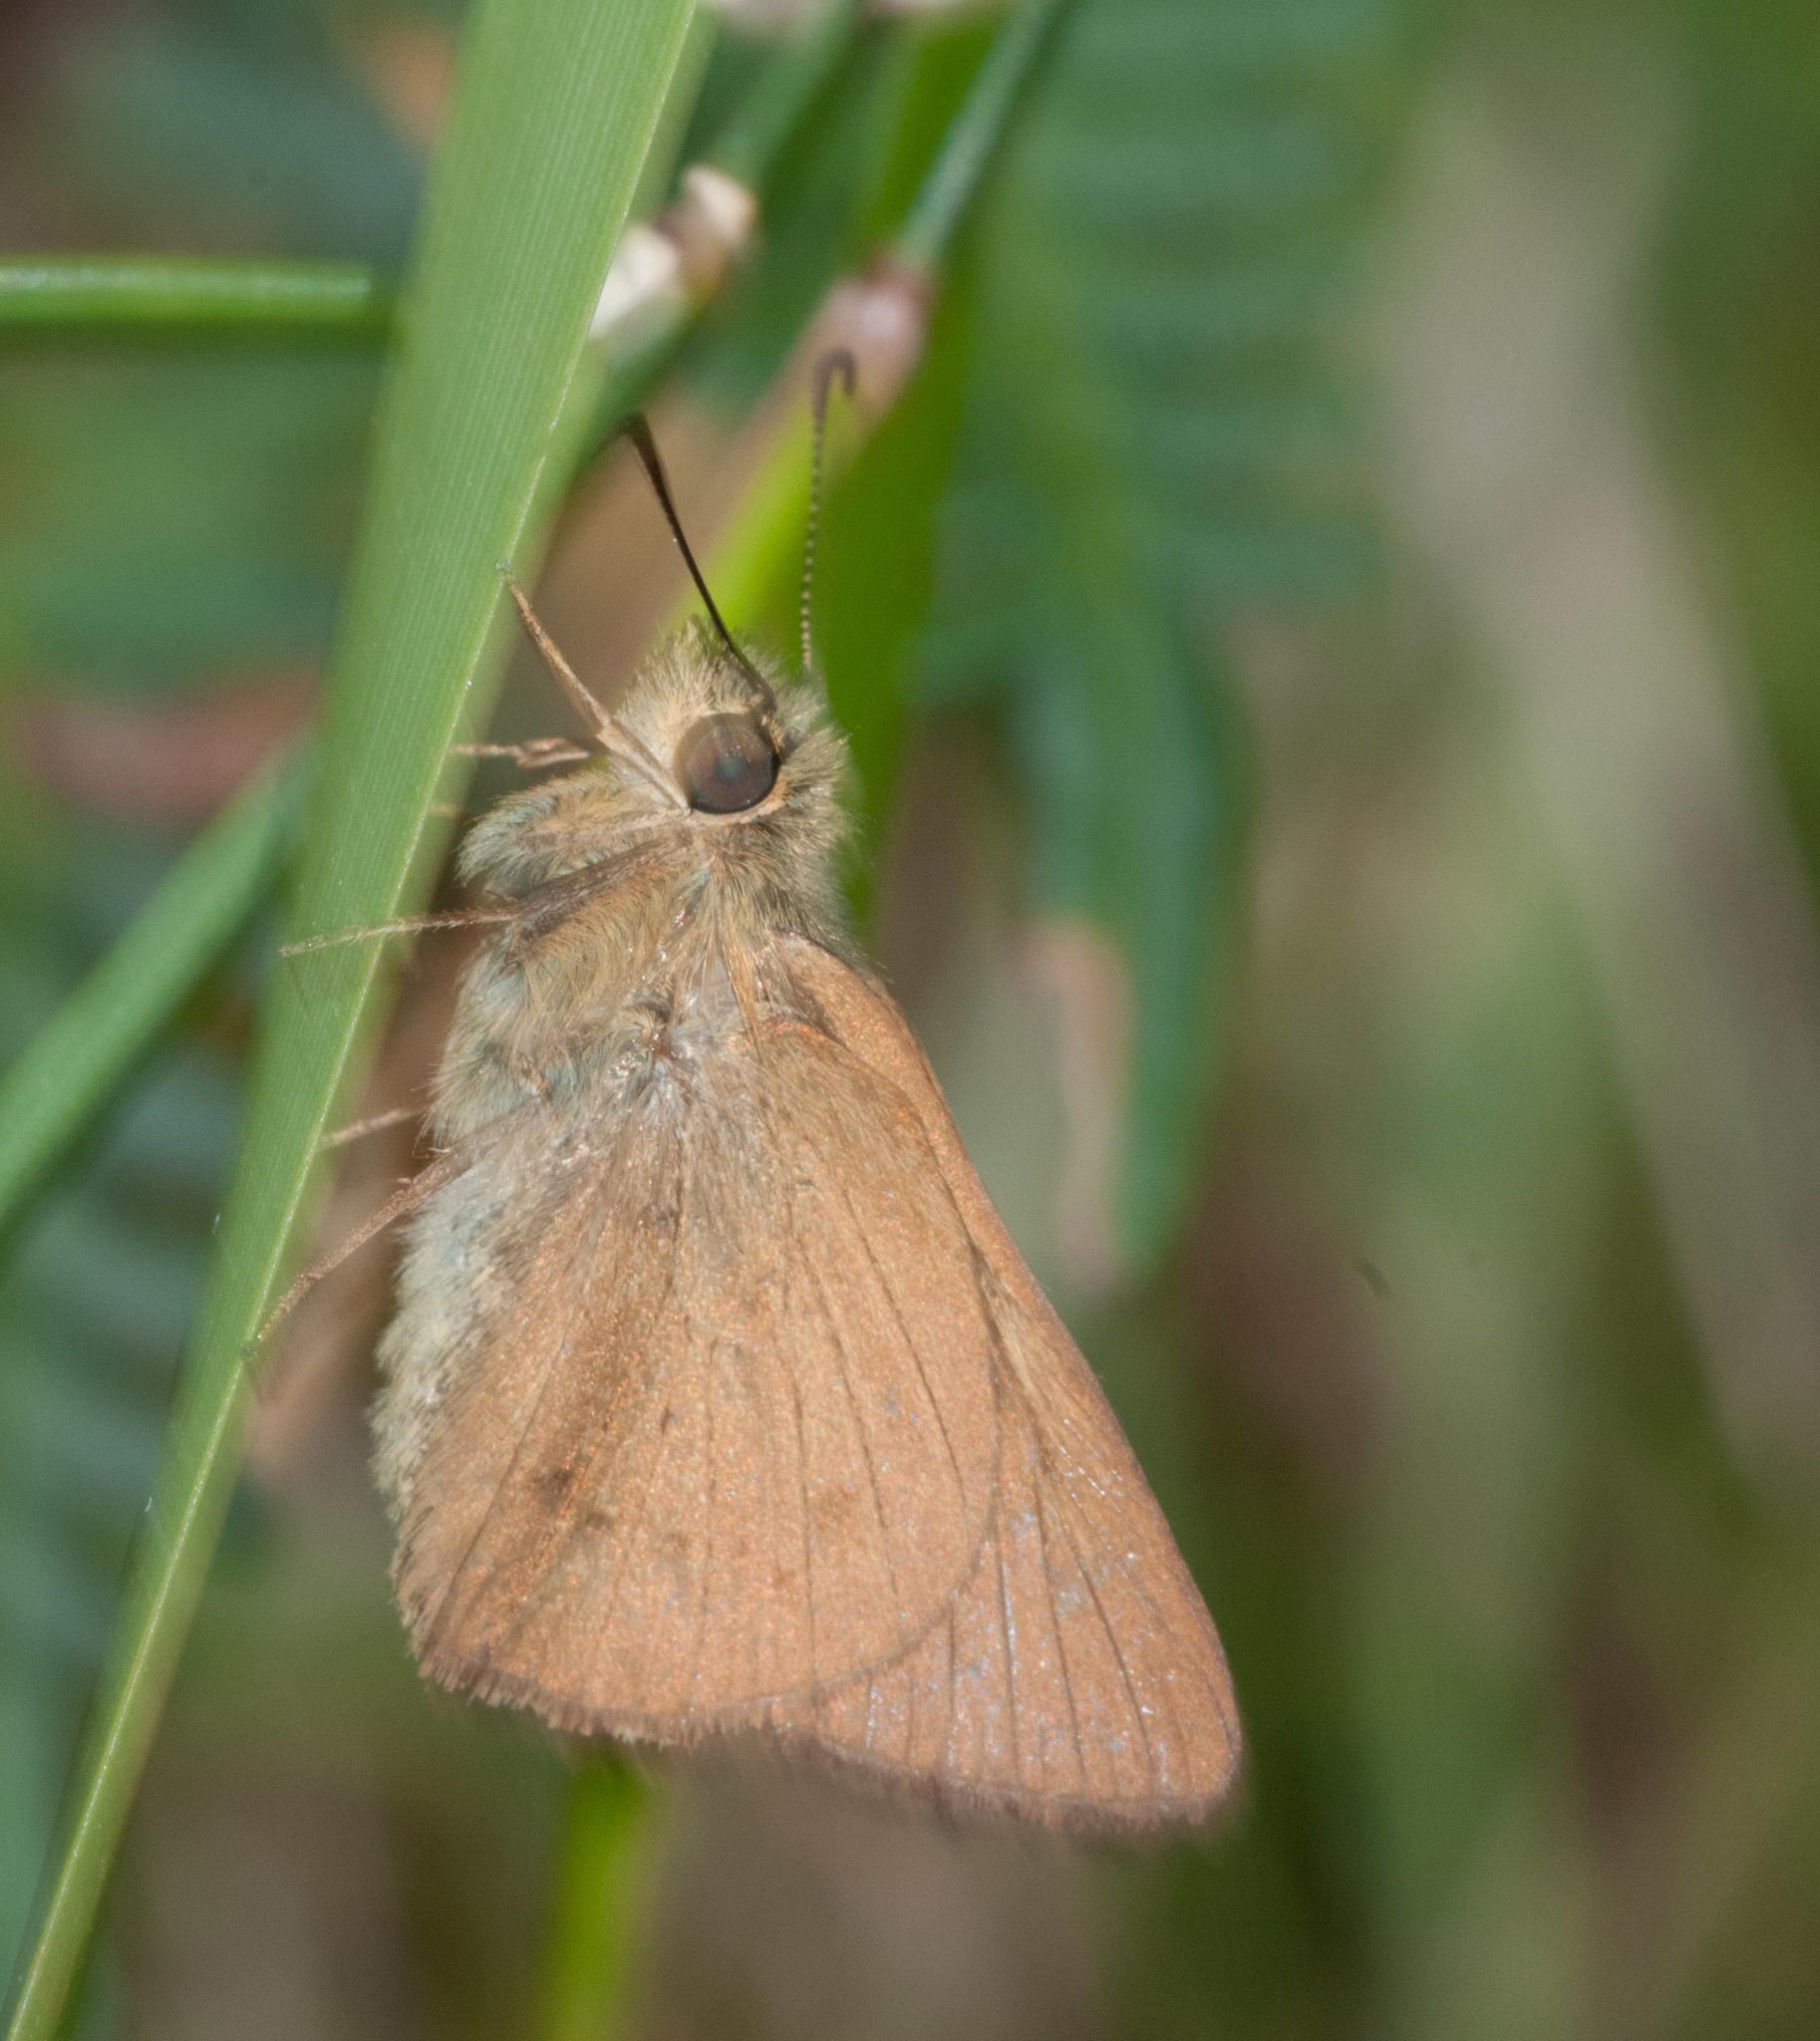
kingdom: Animalia
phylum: Arthropoda
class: Insecta
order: Lepidoptera
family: Hesperiidae
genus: Toxidia
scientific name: Toxidia
